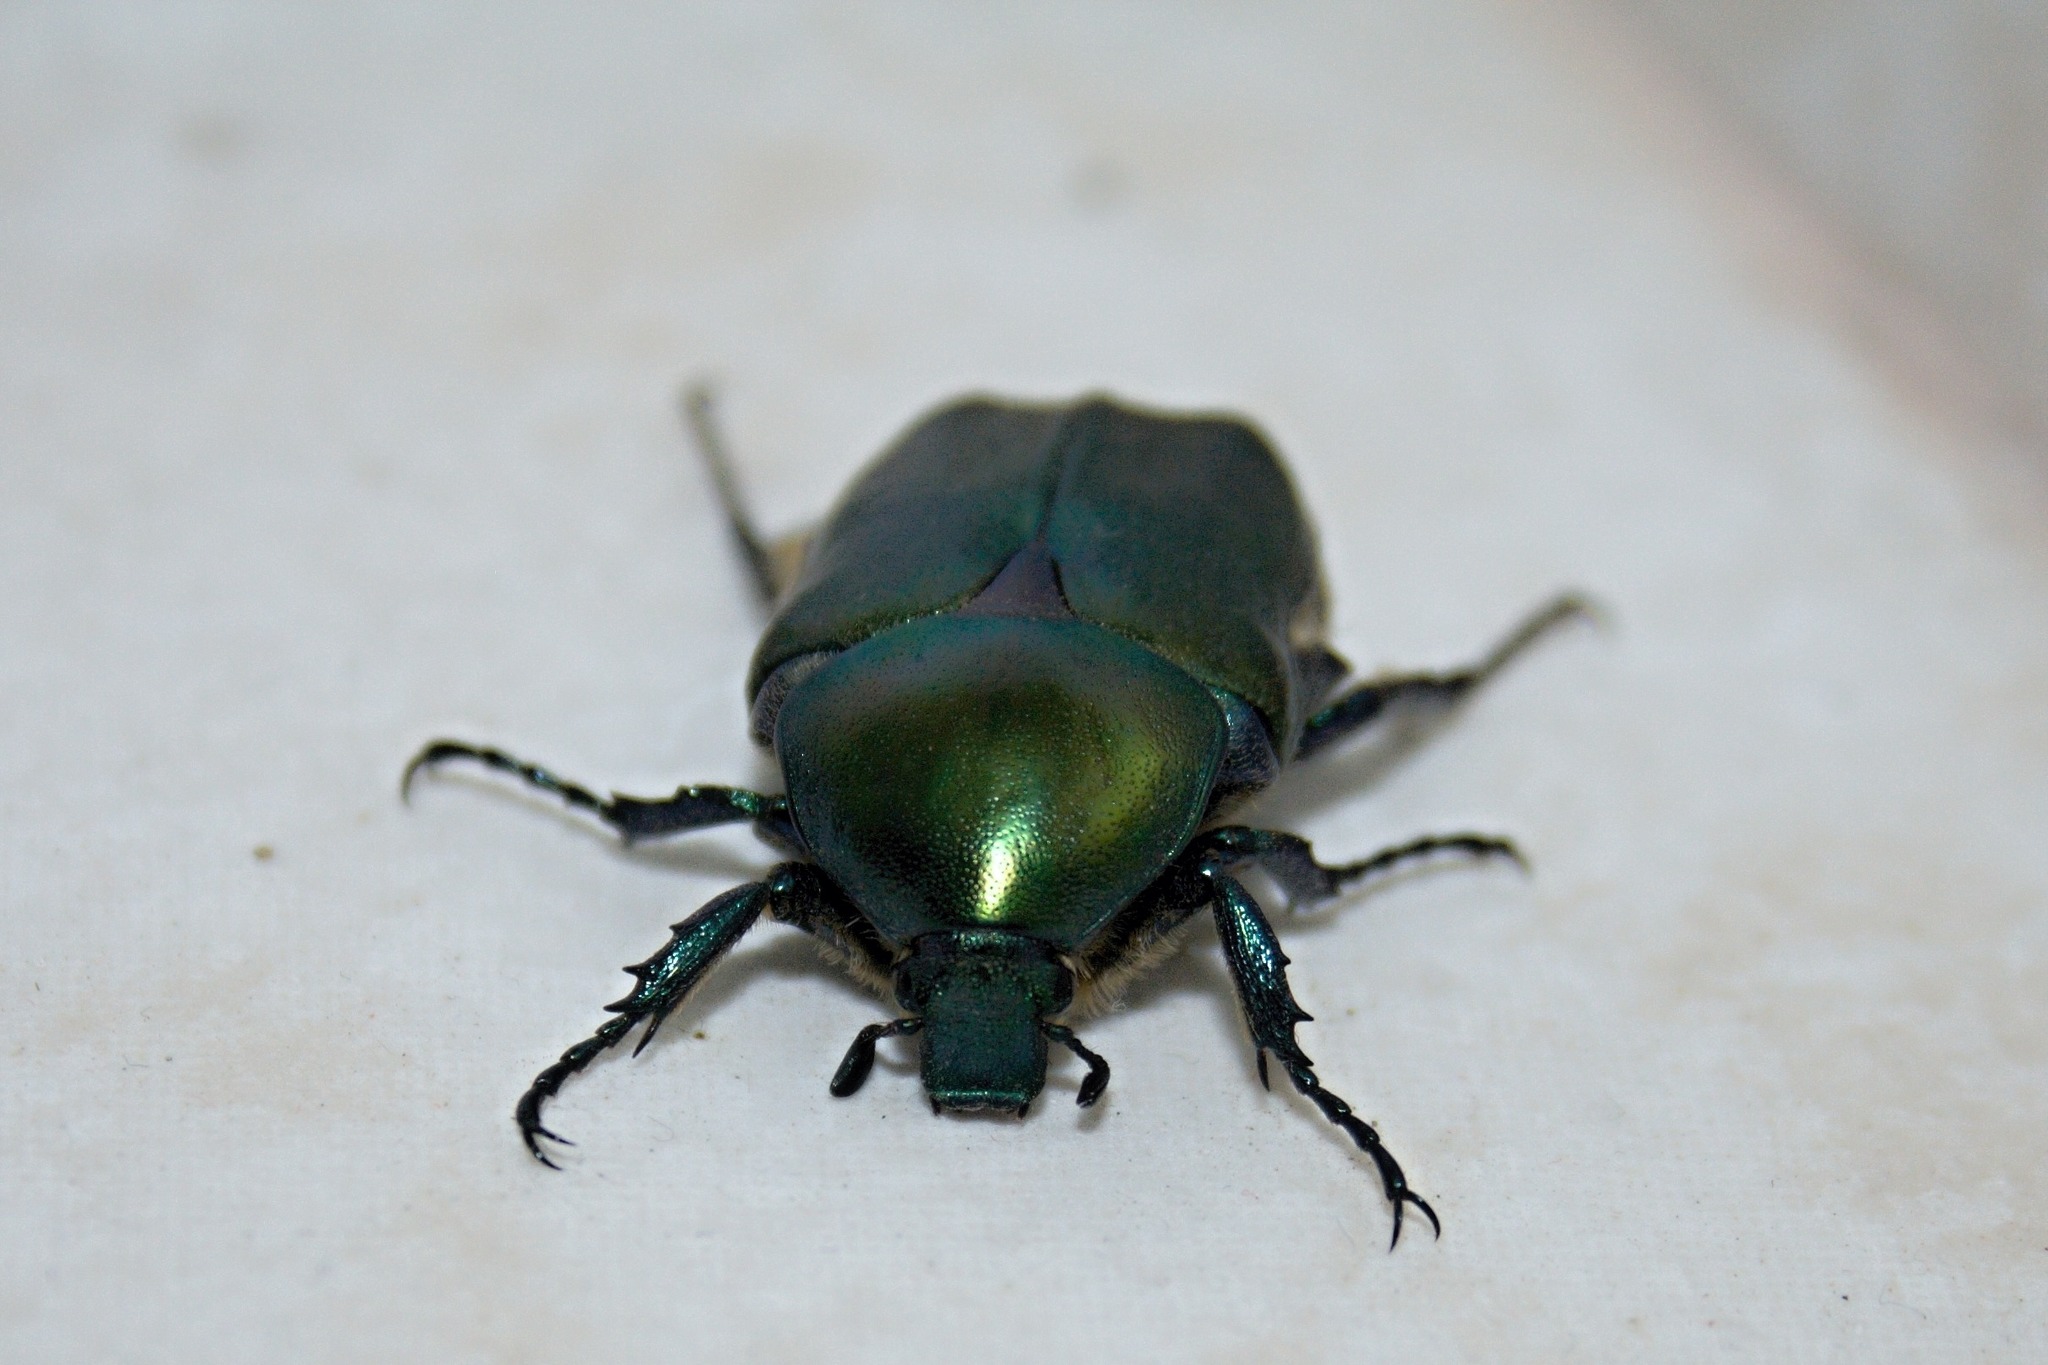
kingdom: Animalia
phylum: Arthropoda
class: Insecta
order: Coleoptera
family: Scarabaeidae
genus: Protaetia
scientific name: Protaetia angustata
